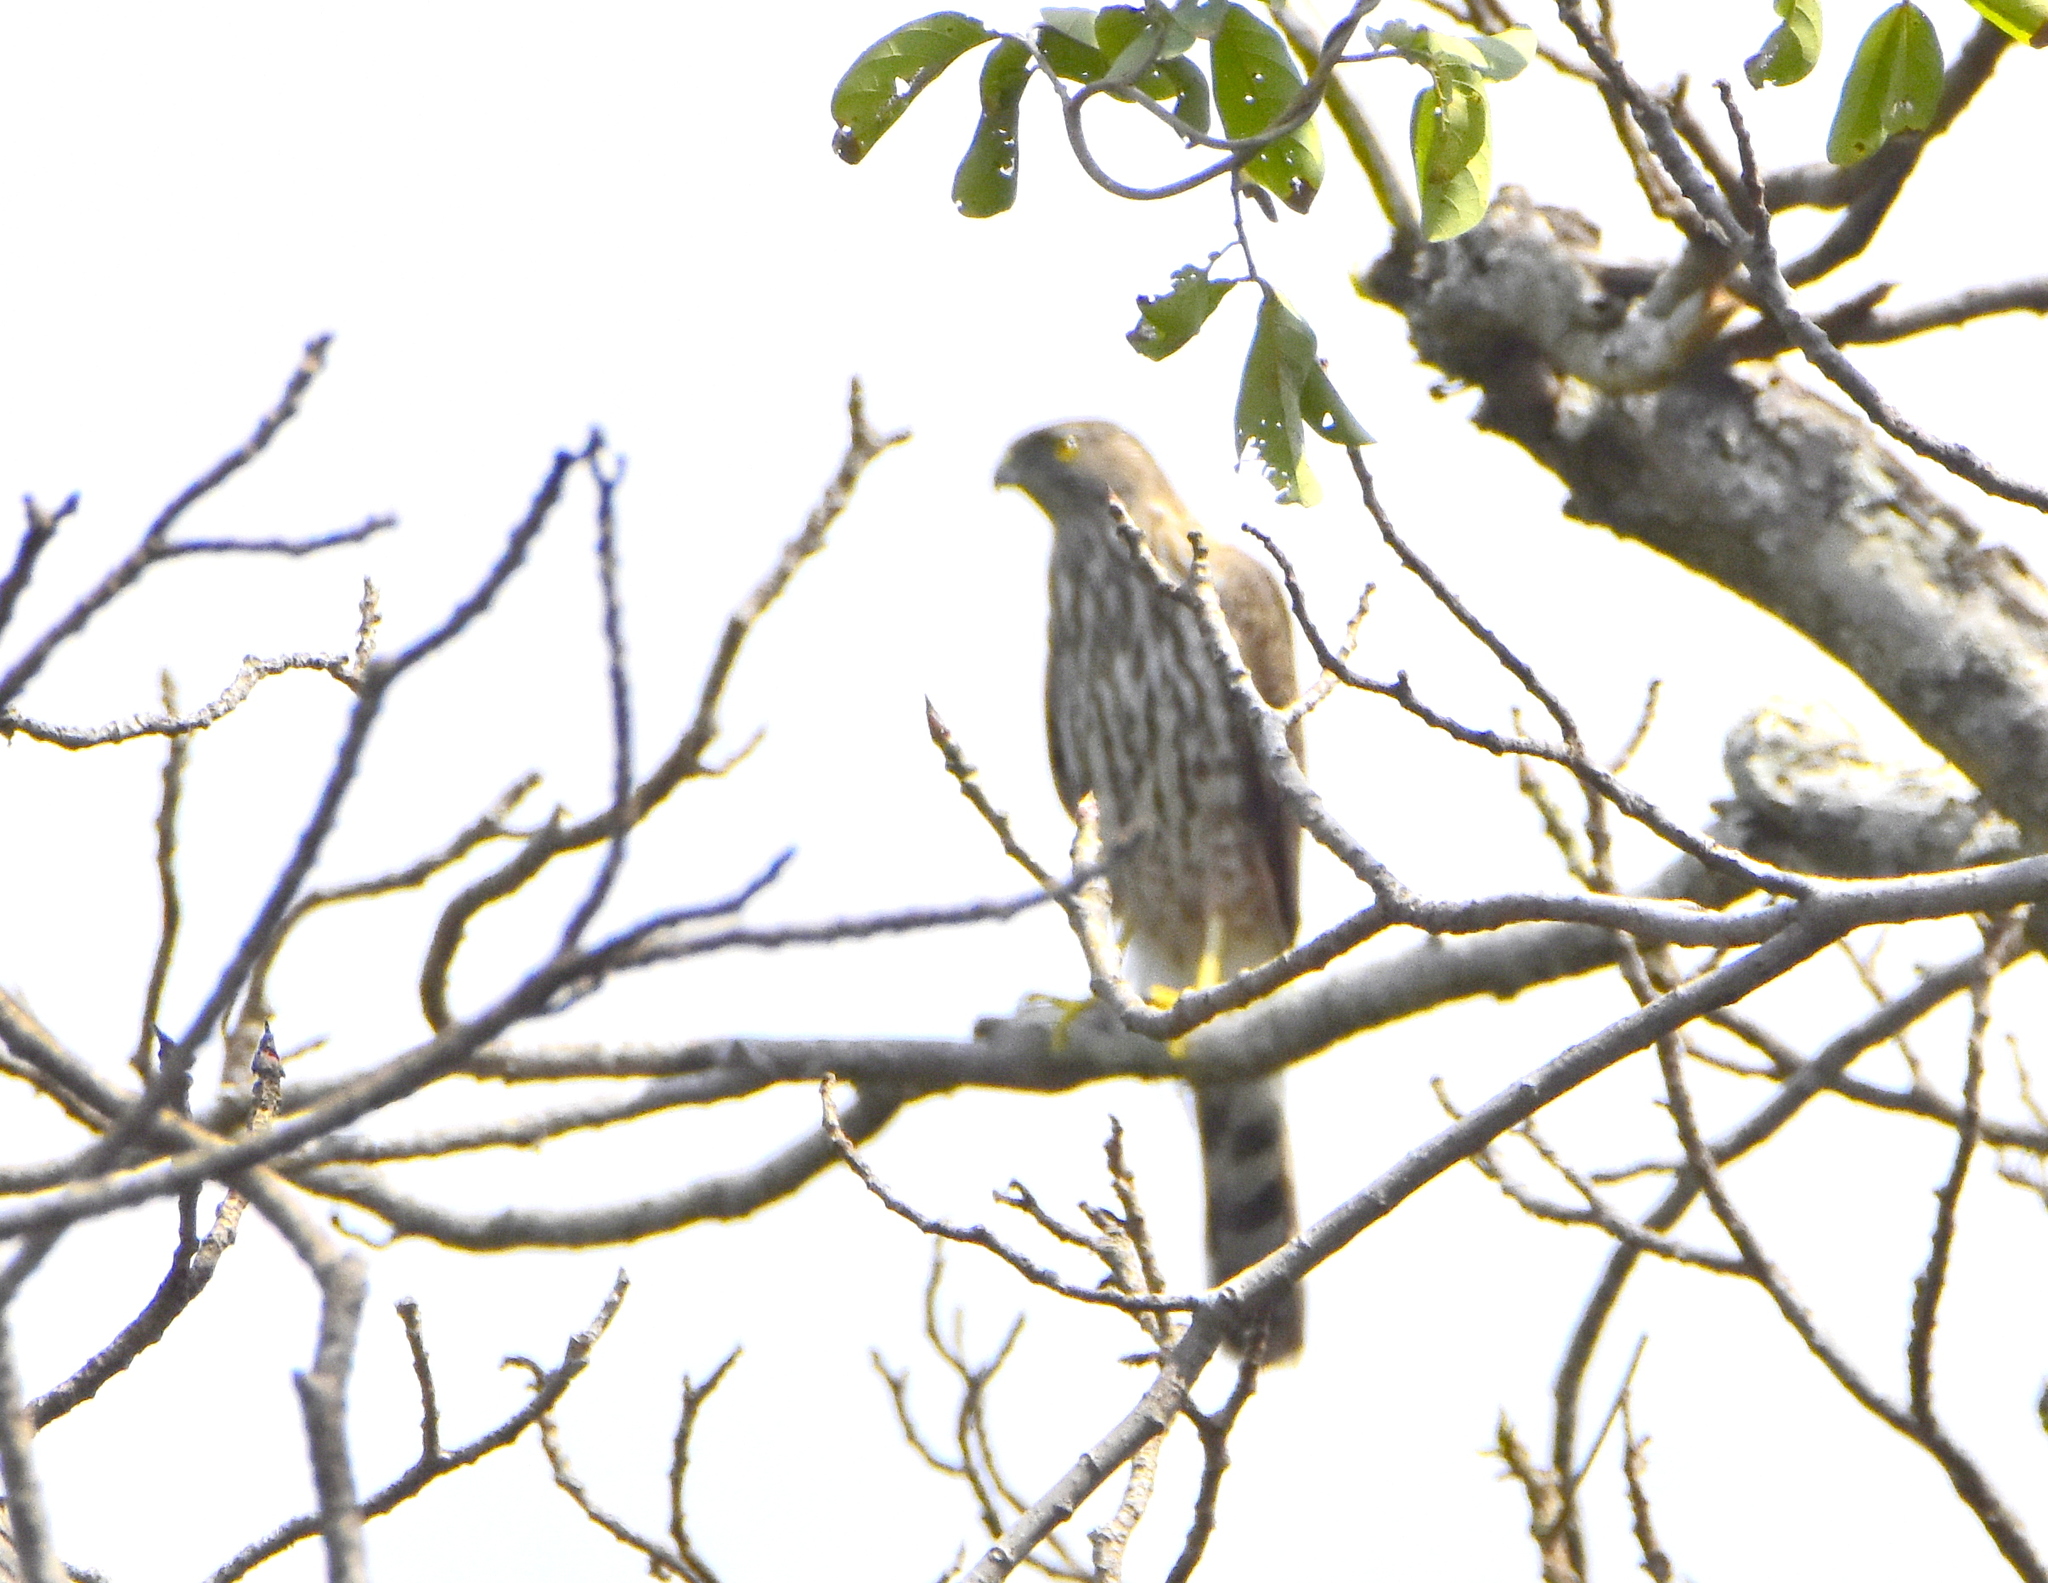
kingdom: Animalia
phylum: Chordata
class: Aves
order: Accipitriformes
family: Accipitridae
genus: Accipiter
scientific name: Accipiter cooperii
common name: Cooper's hawk
